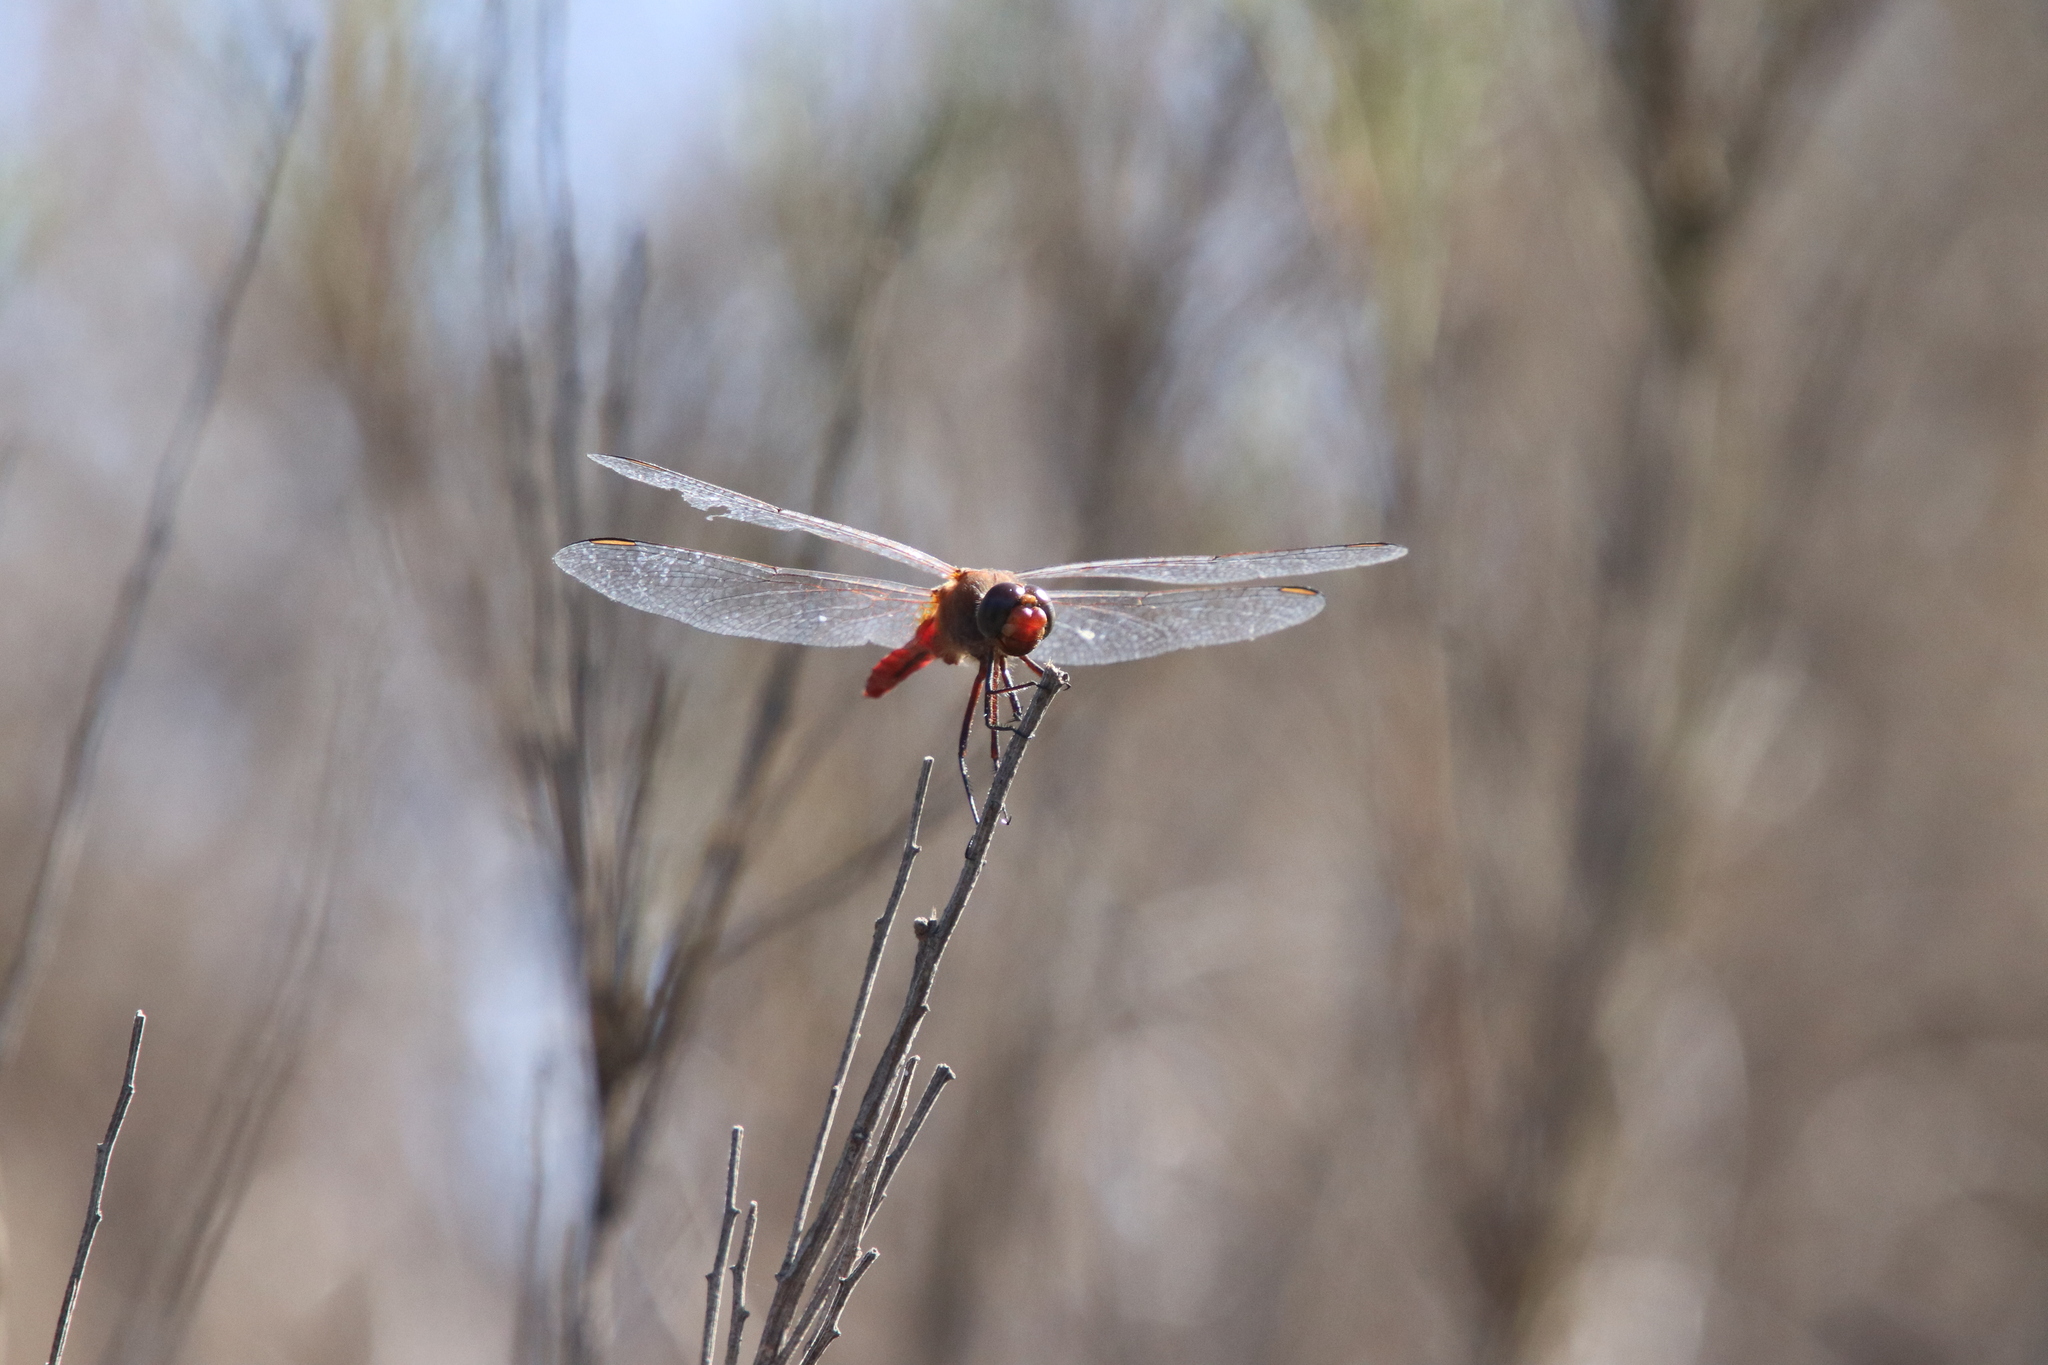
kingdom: Animalia
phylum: Arthropoda
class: Insecta
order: Odonata
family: Libellulidae
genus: Brachymesia
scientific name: Brachymesia furcata
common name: Red-taled pennant
